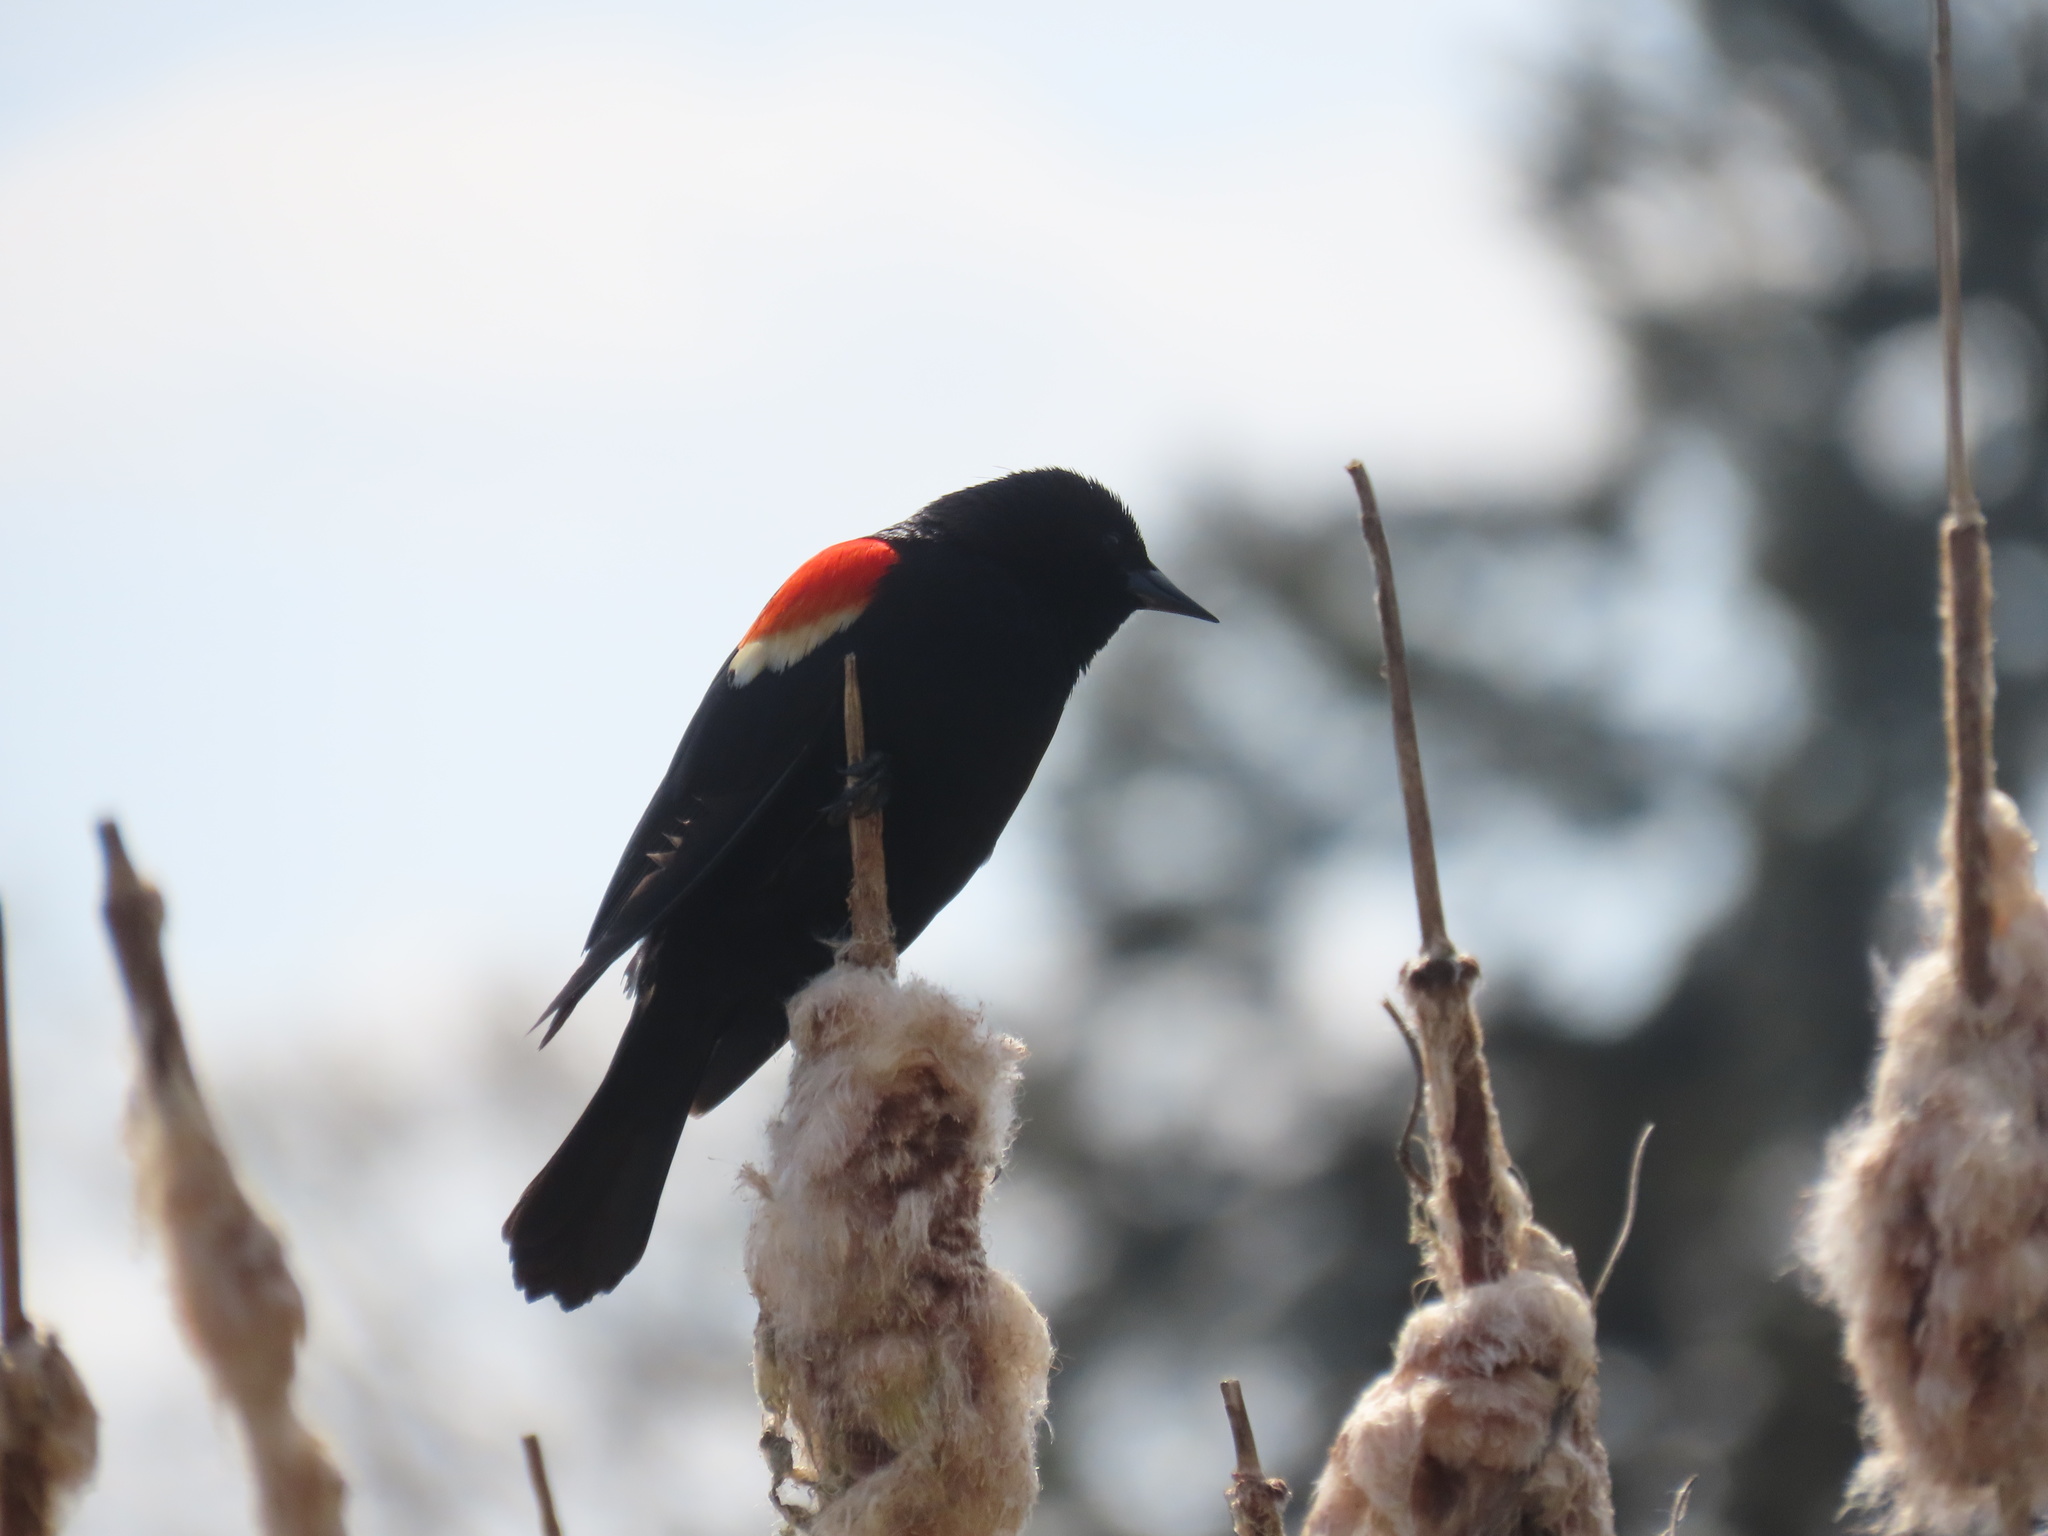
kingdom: Animalia
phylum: Chordata
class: Aves
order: Passeriformes
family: Icteridae
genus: Agelaius
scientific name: Agelaius phoeniceus
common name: Red-winged blackbird
